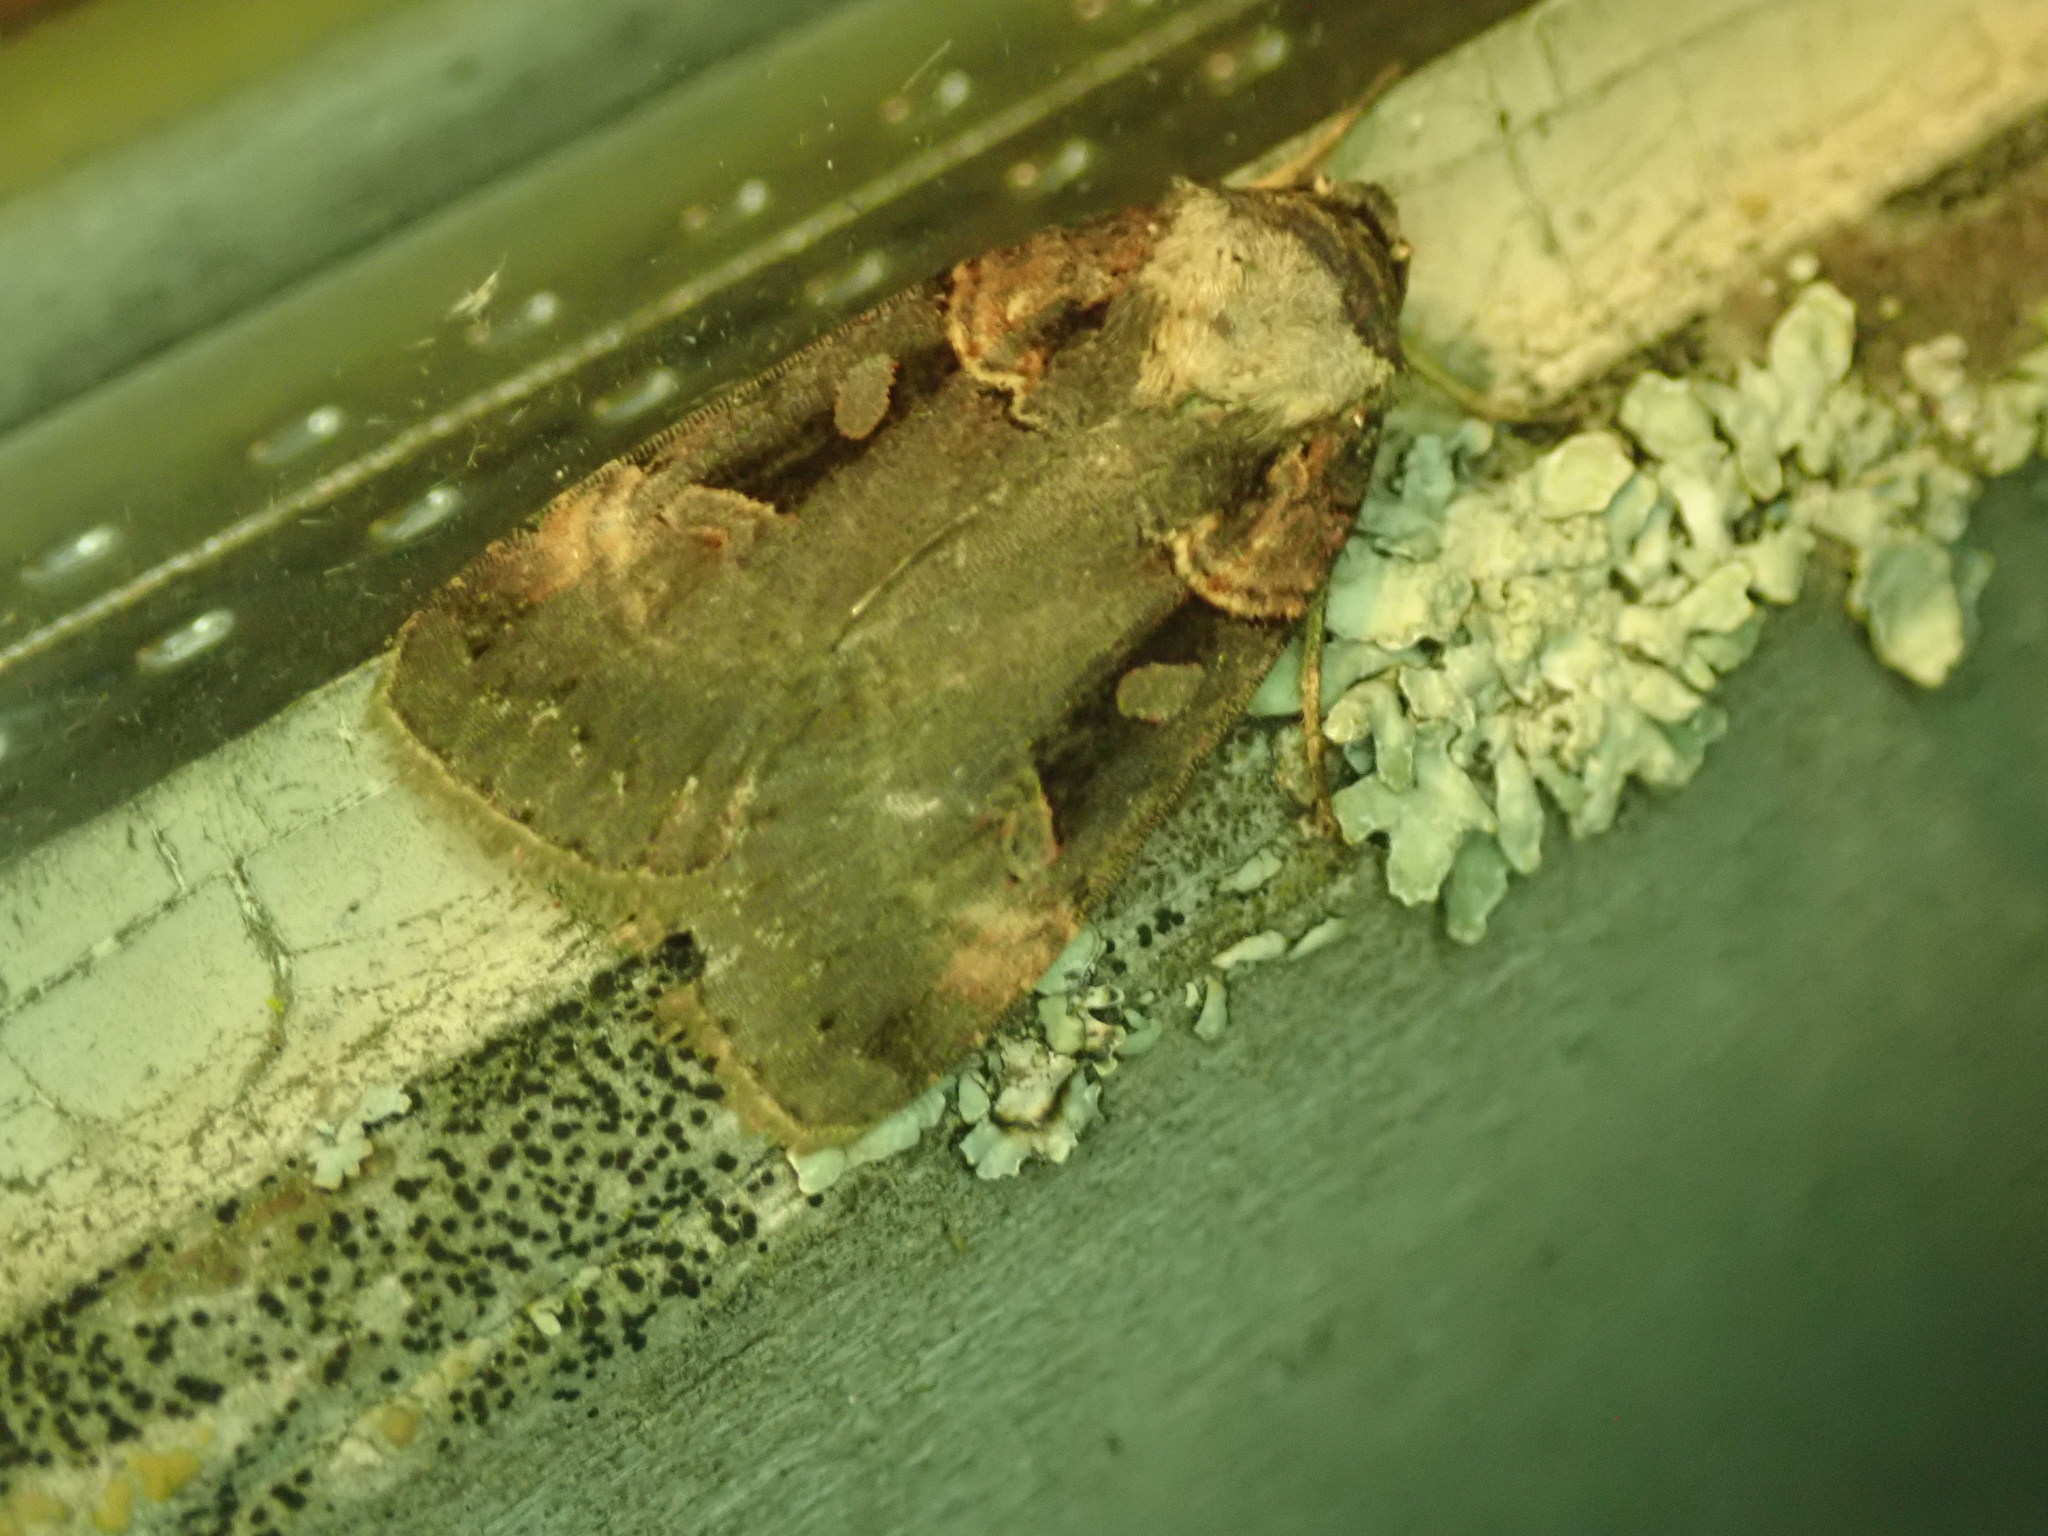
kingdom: Animalia
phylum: Arthropoda
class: Insecta
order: Lepidoptera
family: Noctuidae
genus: Pseudohermonassa
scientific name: Pseudohermonassa bicarnea
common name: Pink spotted dart
